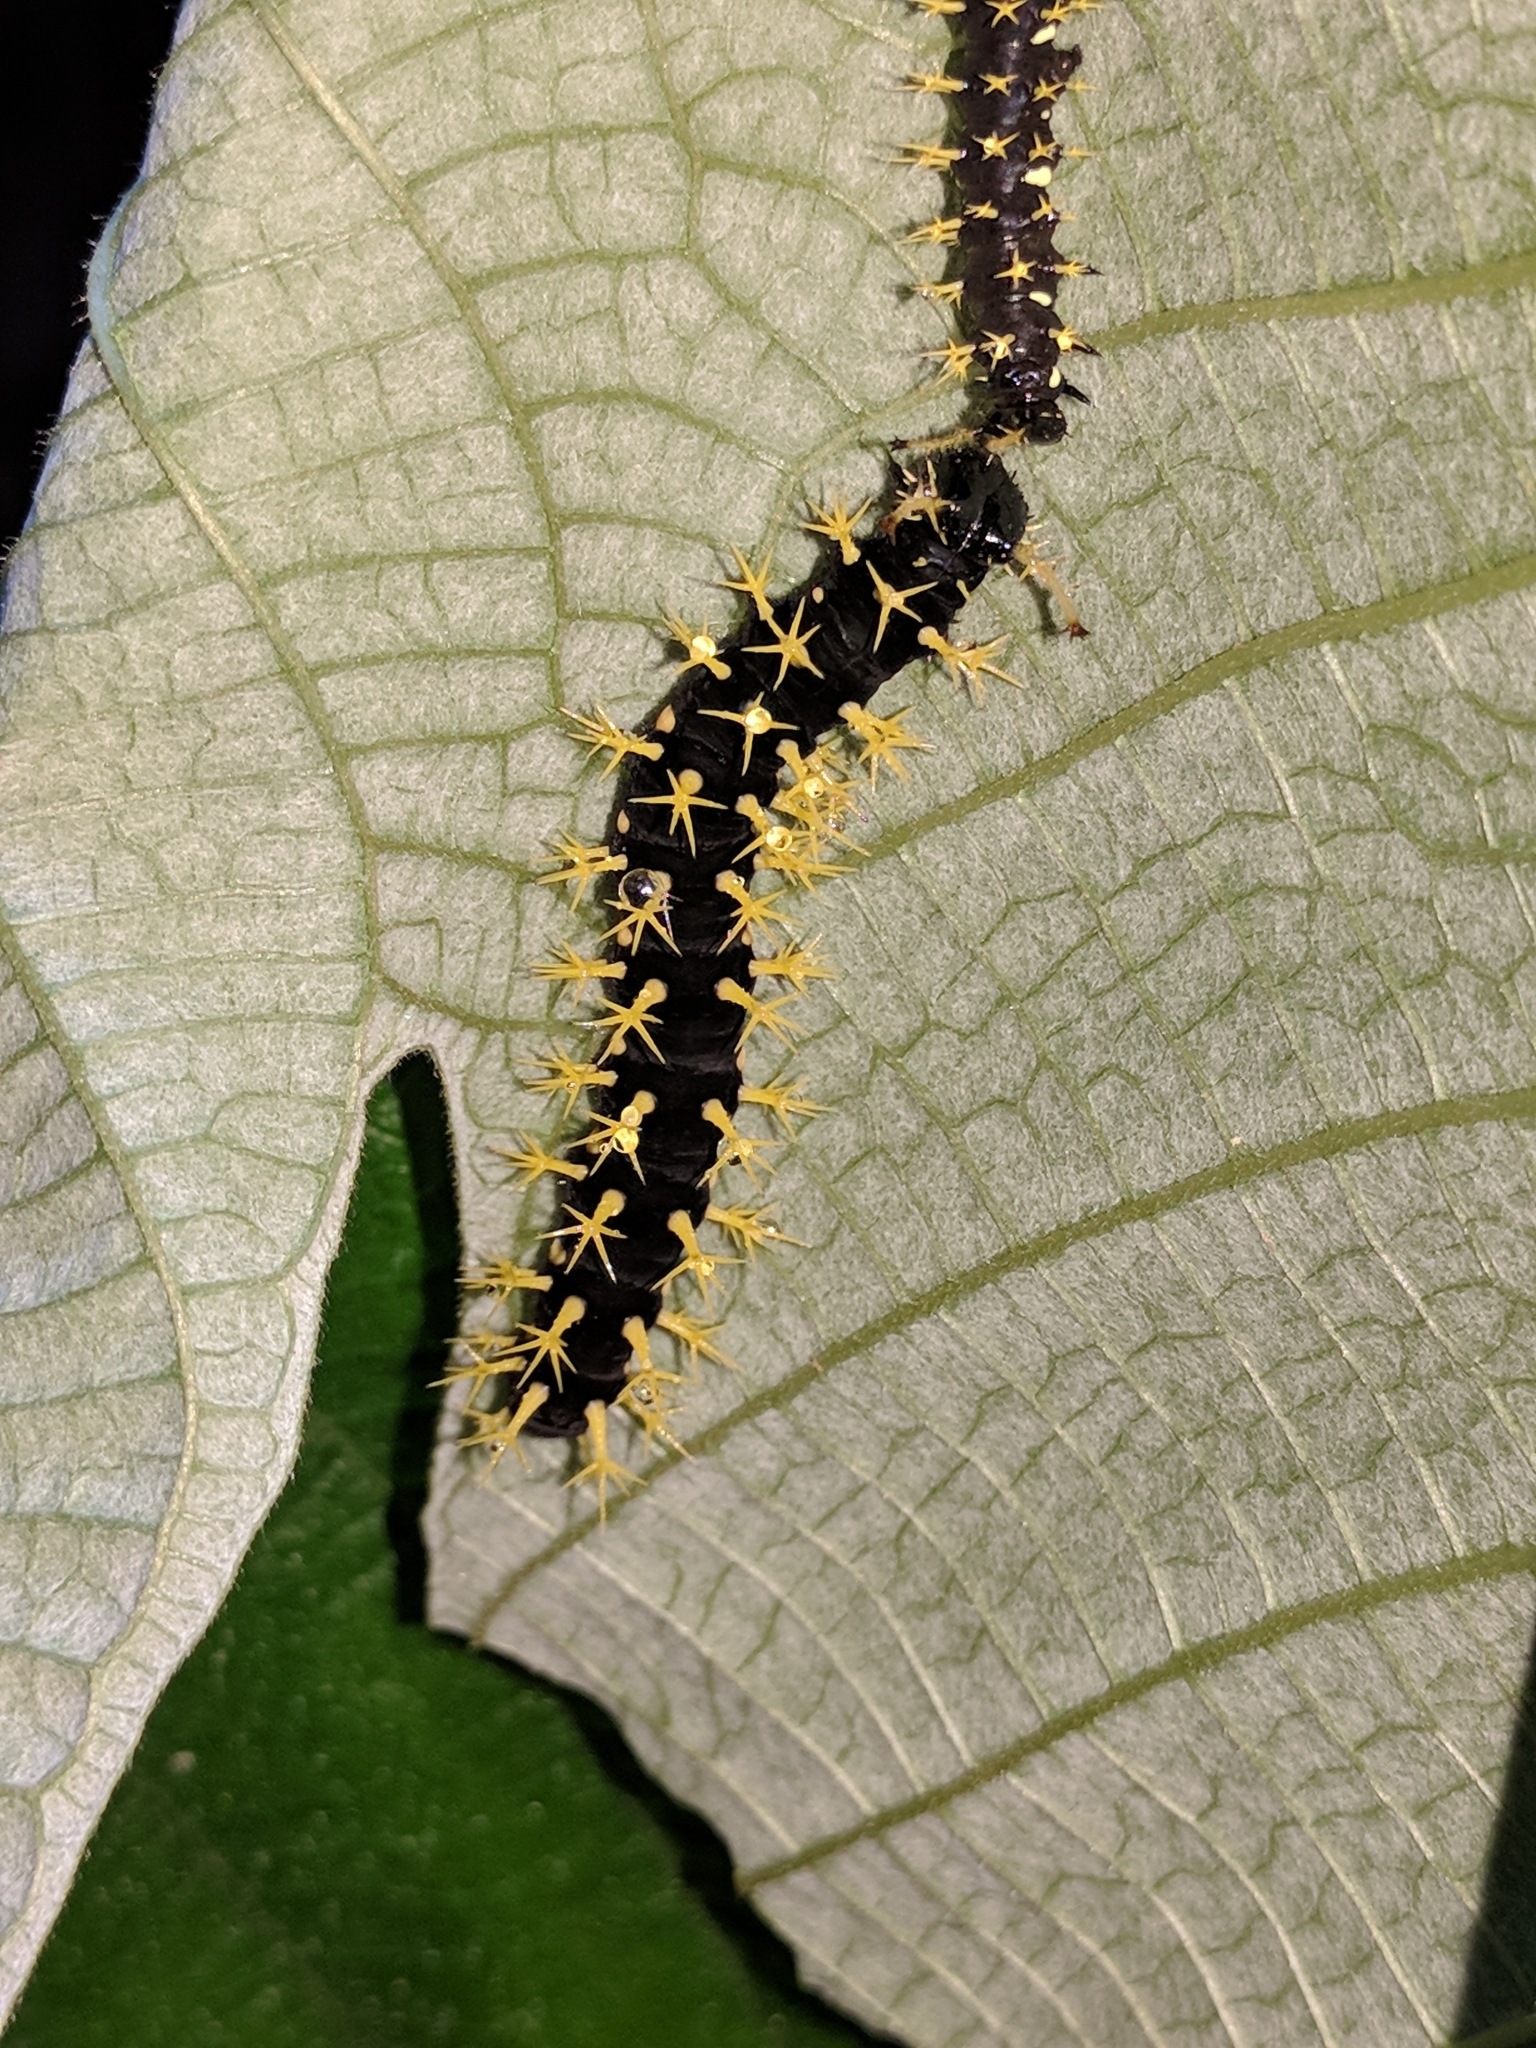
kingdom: Animalia
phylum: Arthropoda
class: Insecta
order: Lepidoptera
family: Nymphalidae
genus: Colobura
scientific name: Colobura dirce
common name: Dirce beauty
